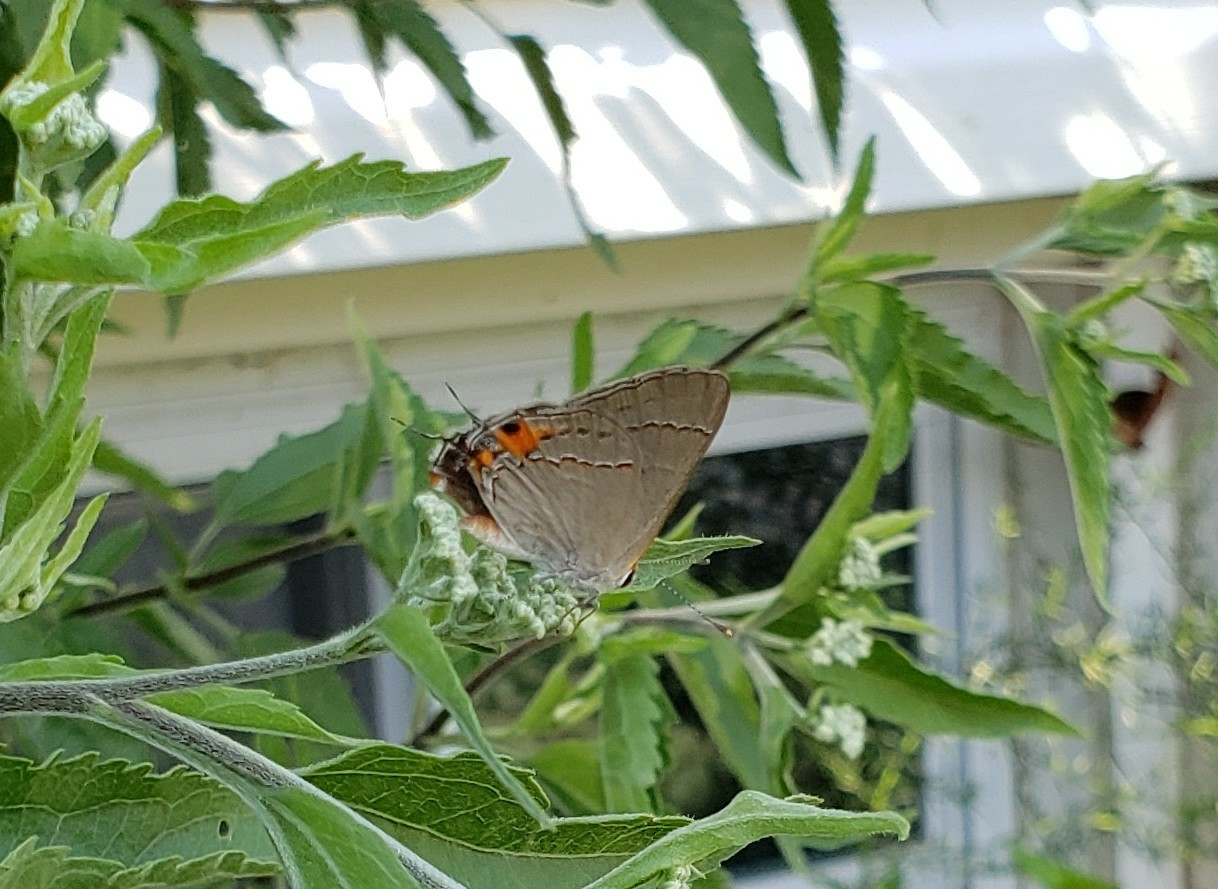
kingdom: Animalia
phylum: Arthropoda
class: Insecta
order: Lepidoptera
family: Lycaenidae
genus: Strymon
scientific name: Strymon melinus
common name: Gray hairstreak
